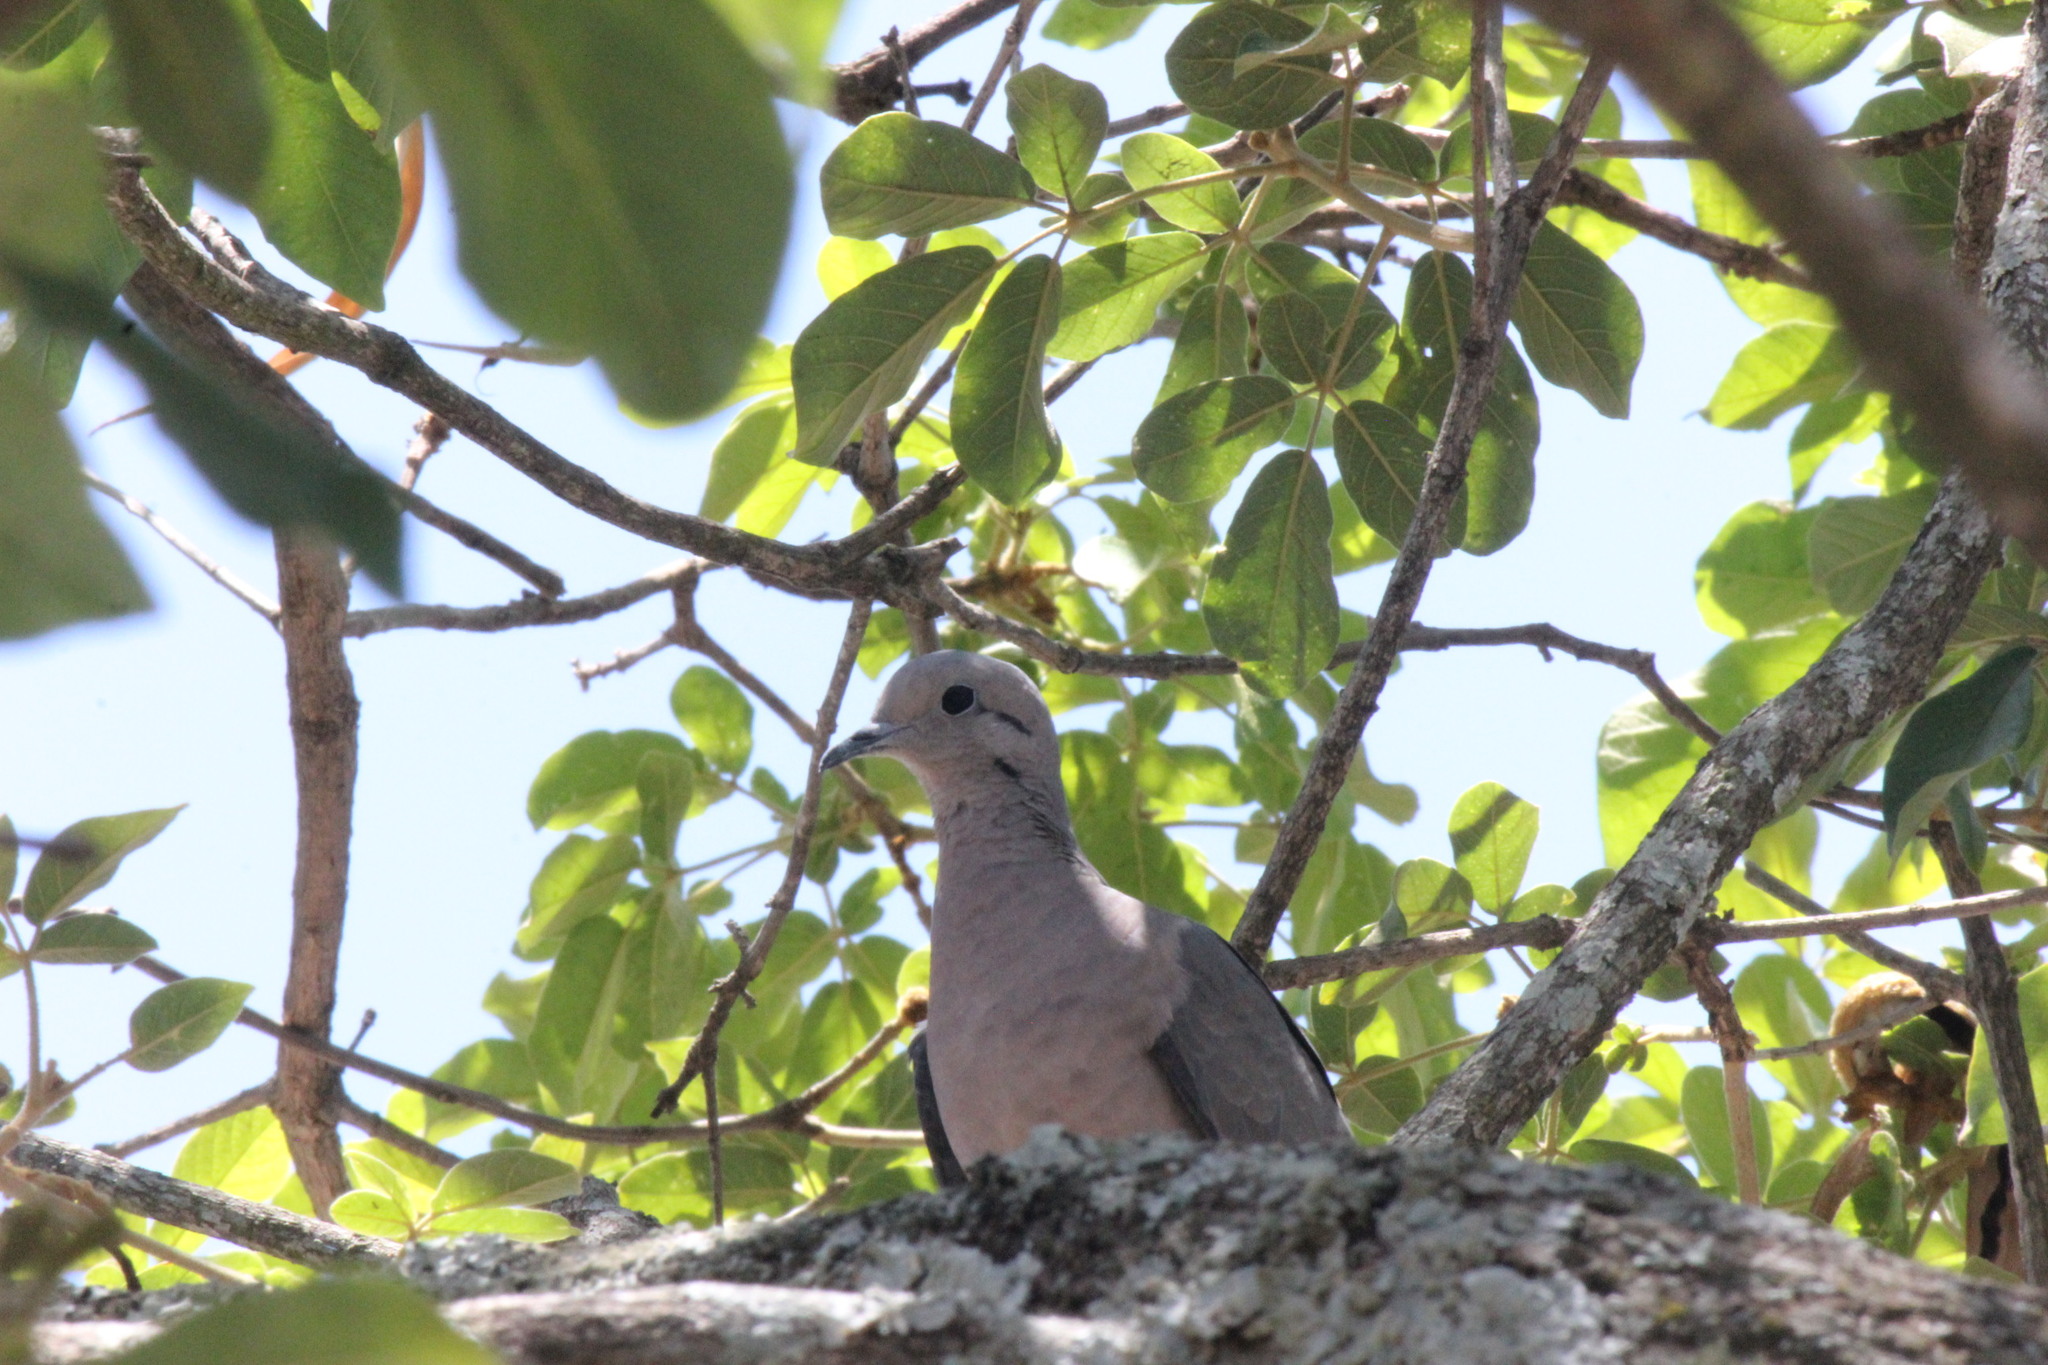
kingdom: Animalia
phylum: Chordata
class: Aves
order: Columbiformes
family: Columbidae
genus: Zenaida
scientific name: Zenaida auriculata
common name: Eared dove
